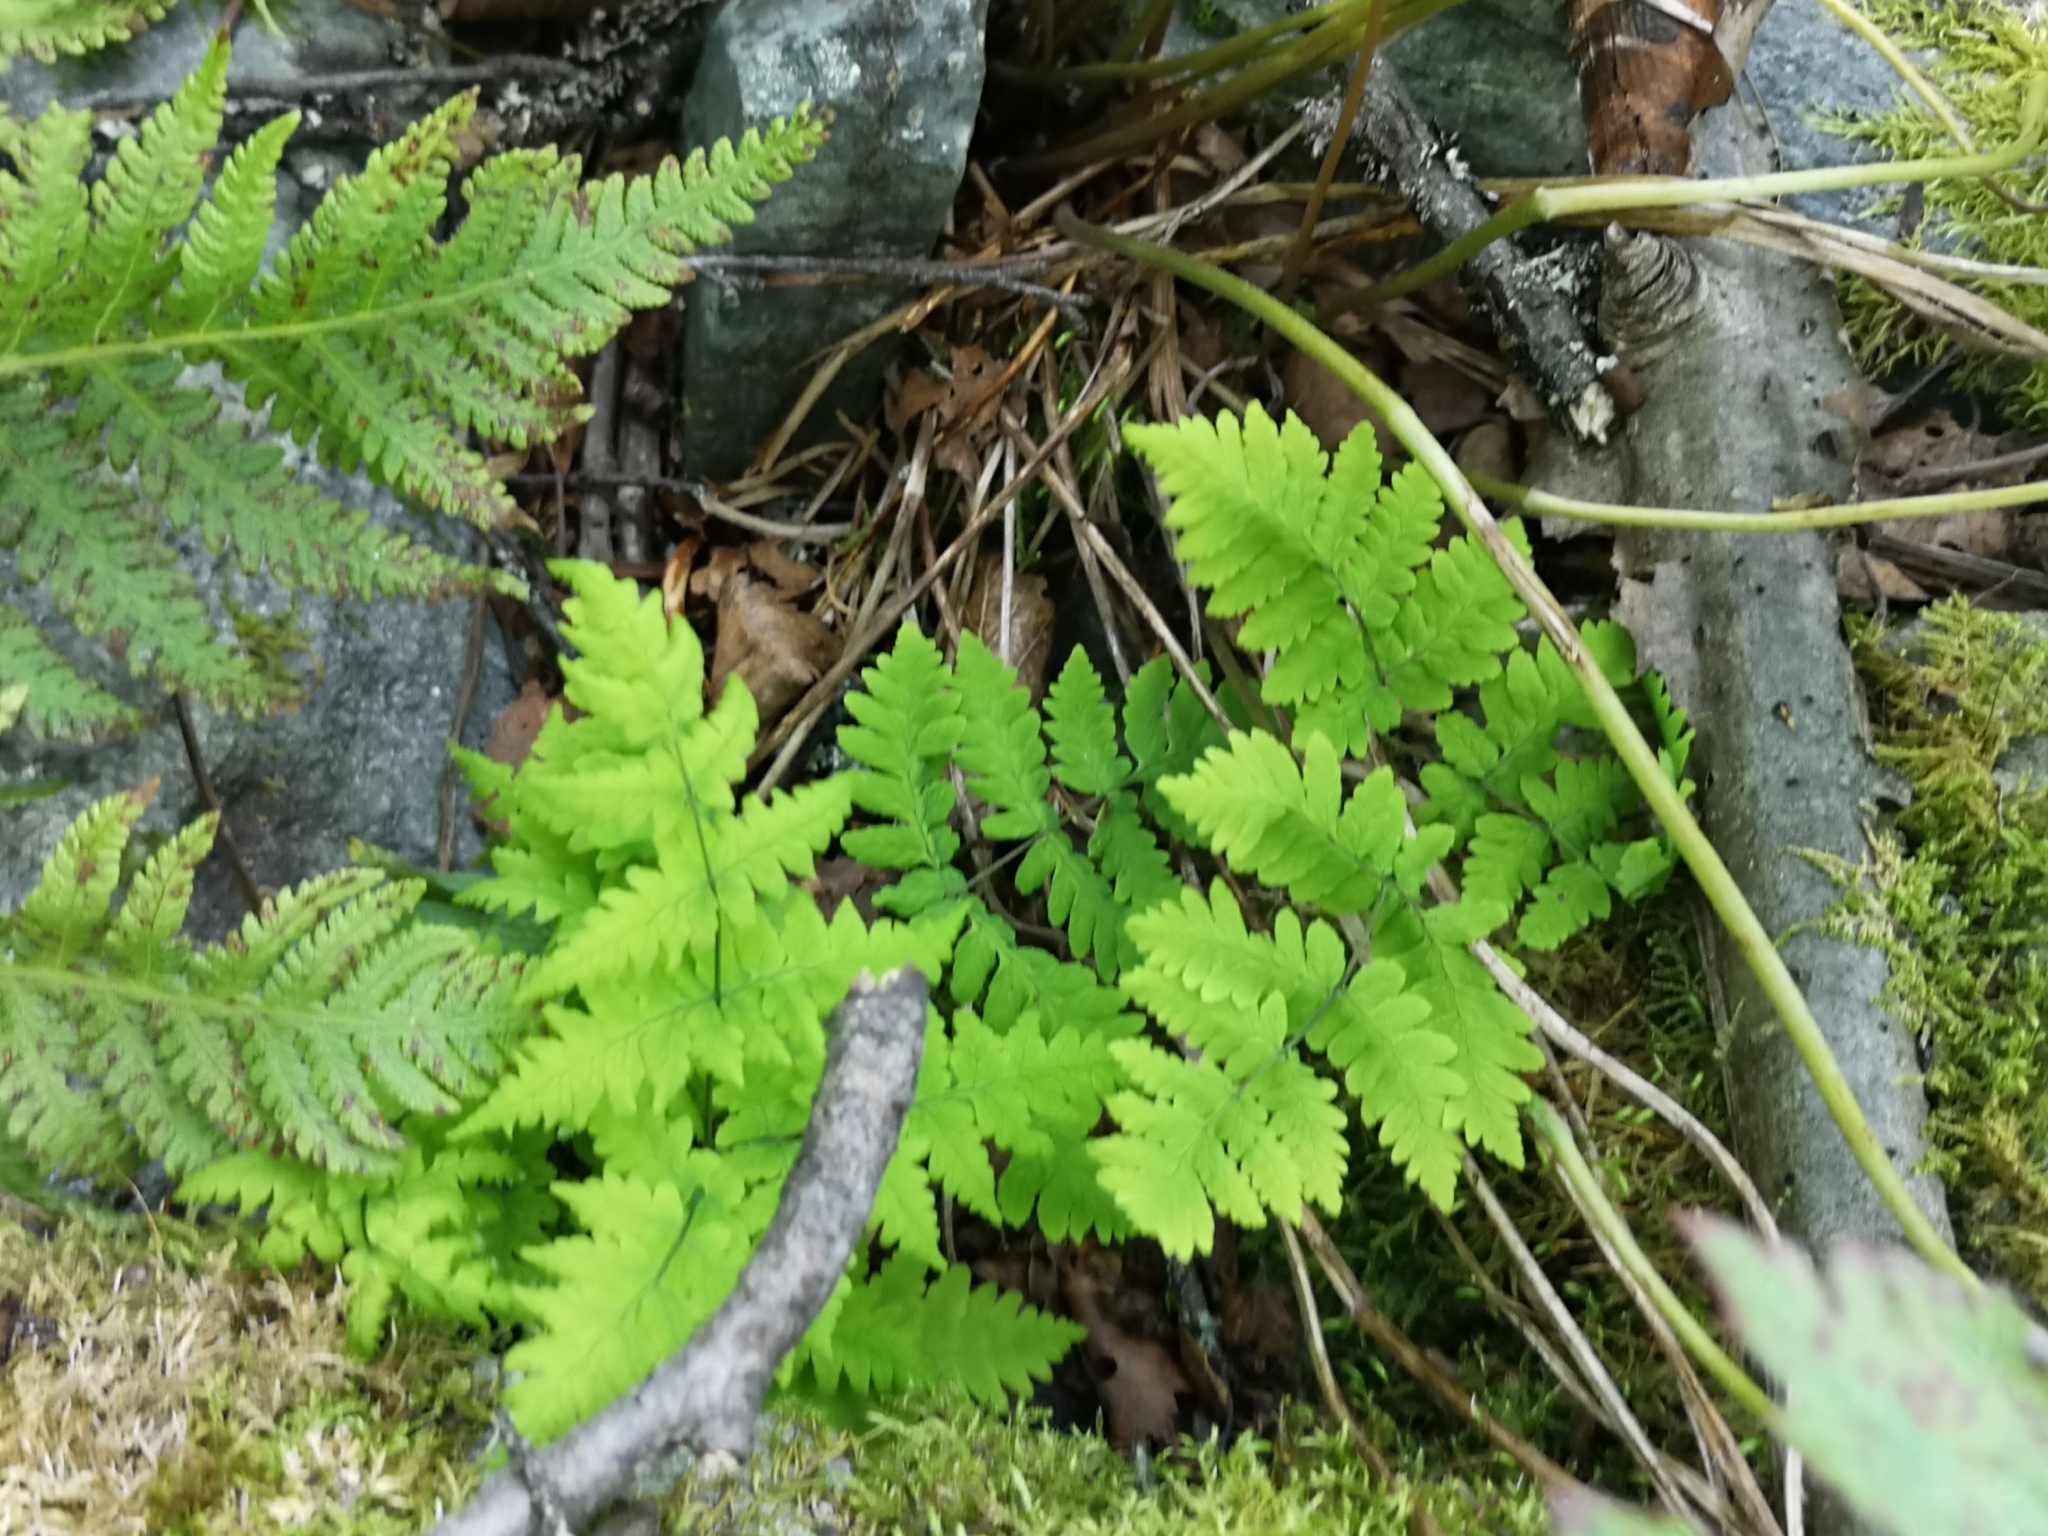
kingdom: Plantae
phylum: Tracheophyta
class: Polypodiopsida
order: Polypodiales
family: Cystopteridaceae
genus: Gymnocarpium
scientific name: Gymnocarpium dryopteris
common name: Oak fern
